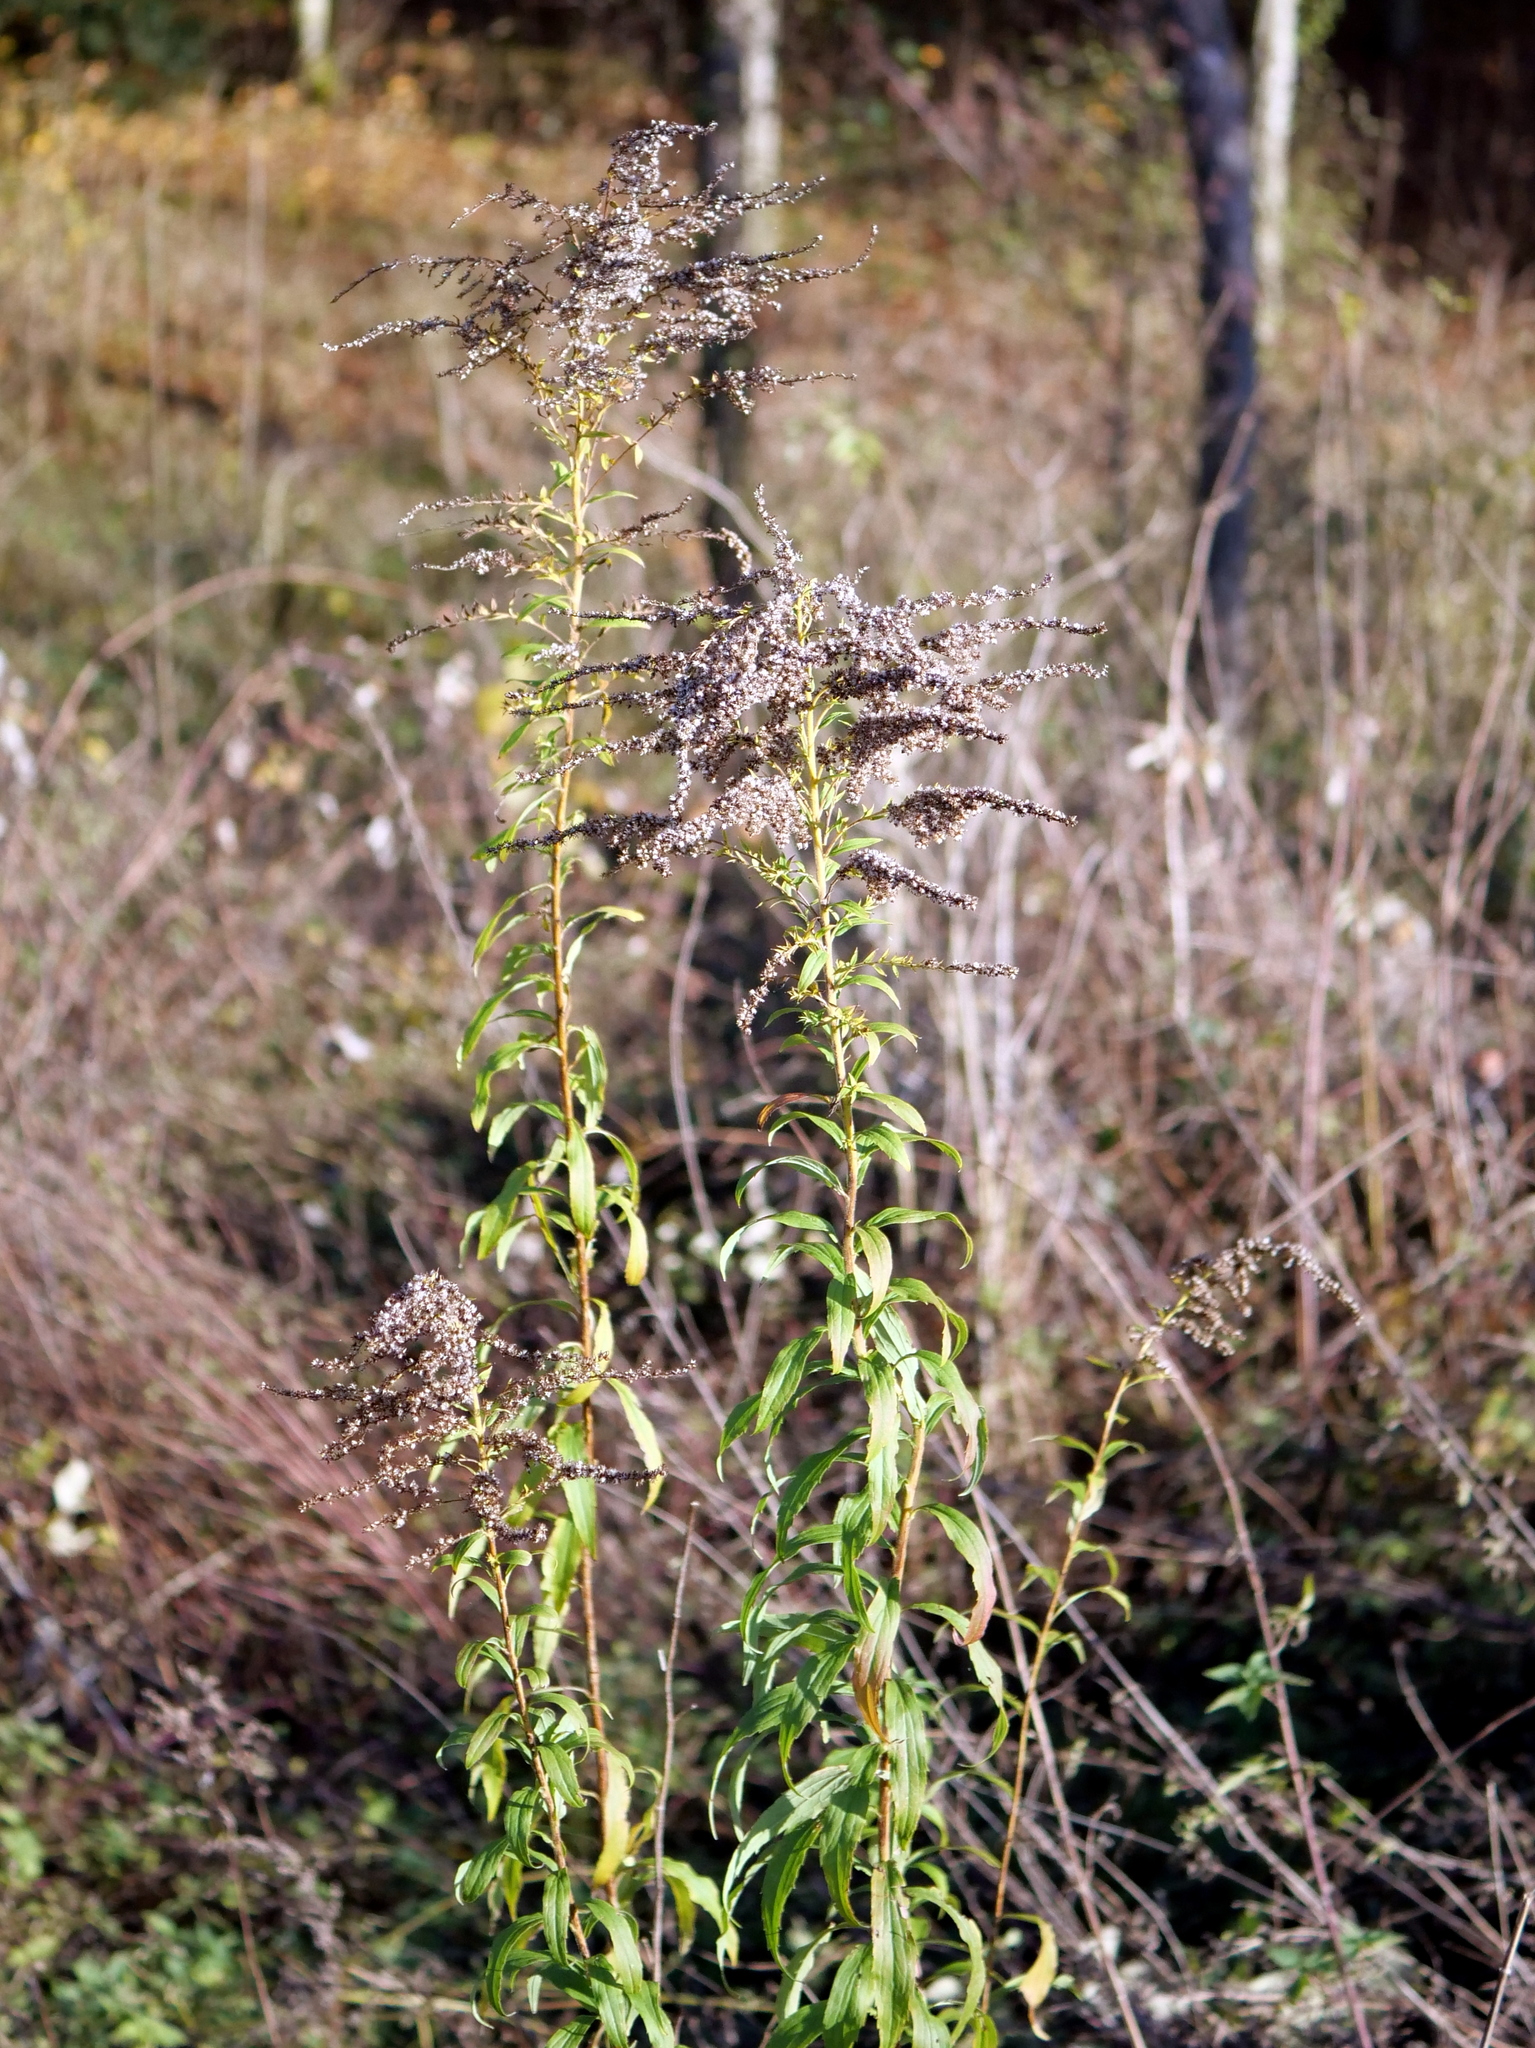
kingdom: Plantae
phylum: Tracheophyta
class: Magnoliopsida
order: Asterales
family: Asteraceae
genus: Solidago
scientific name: Solidago canadensis
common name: Canada goldenrod
